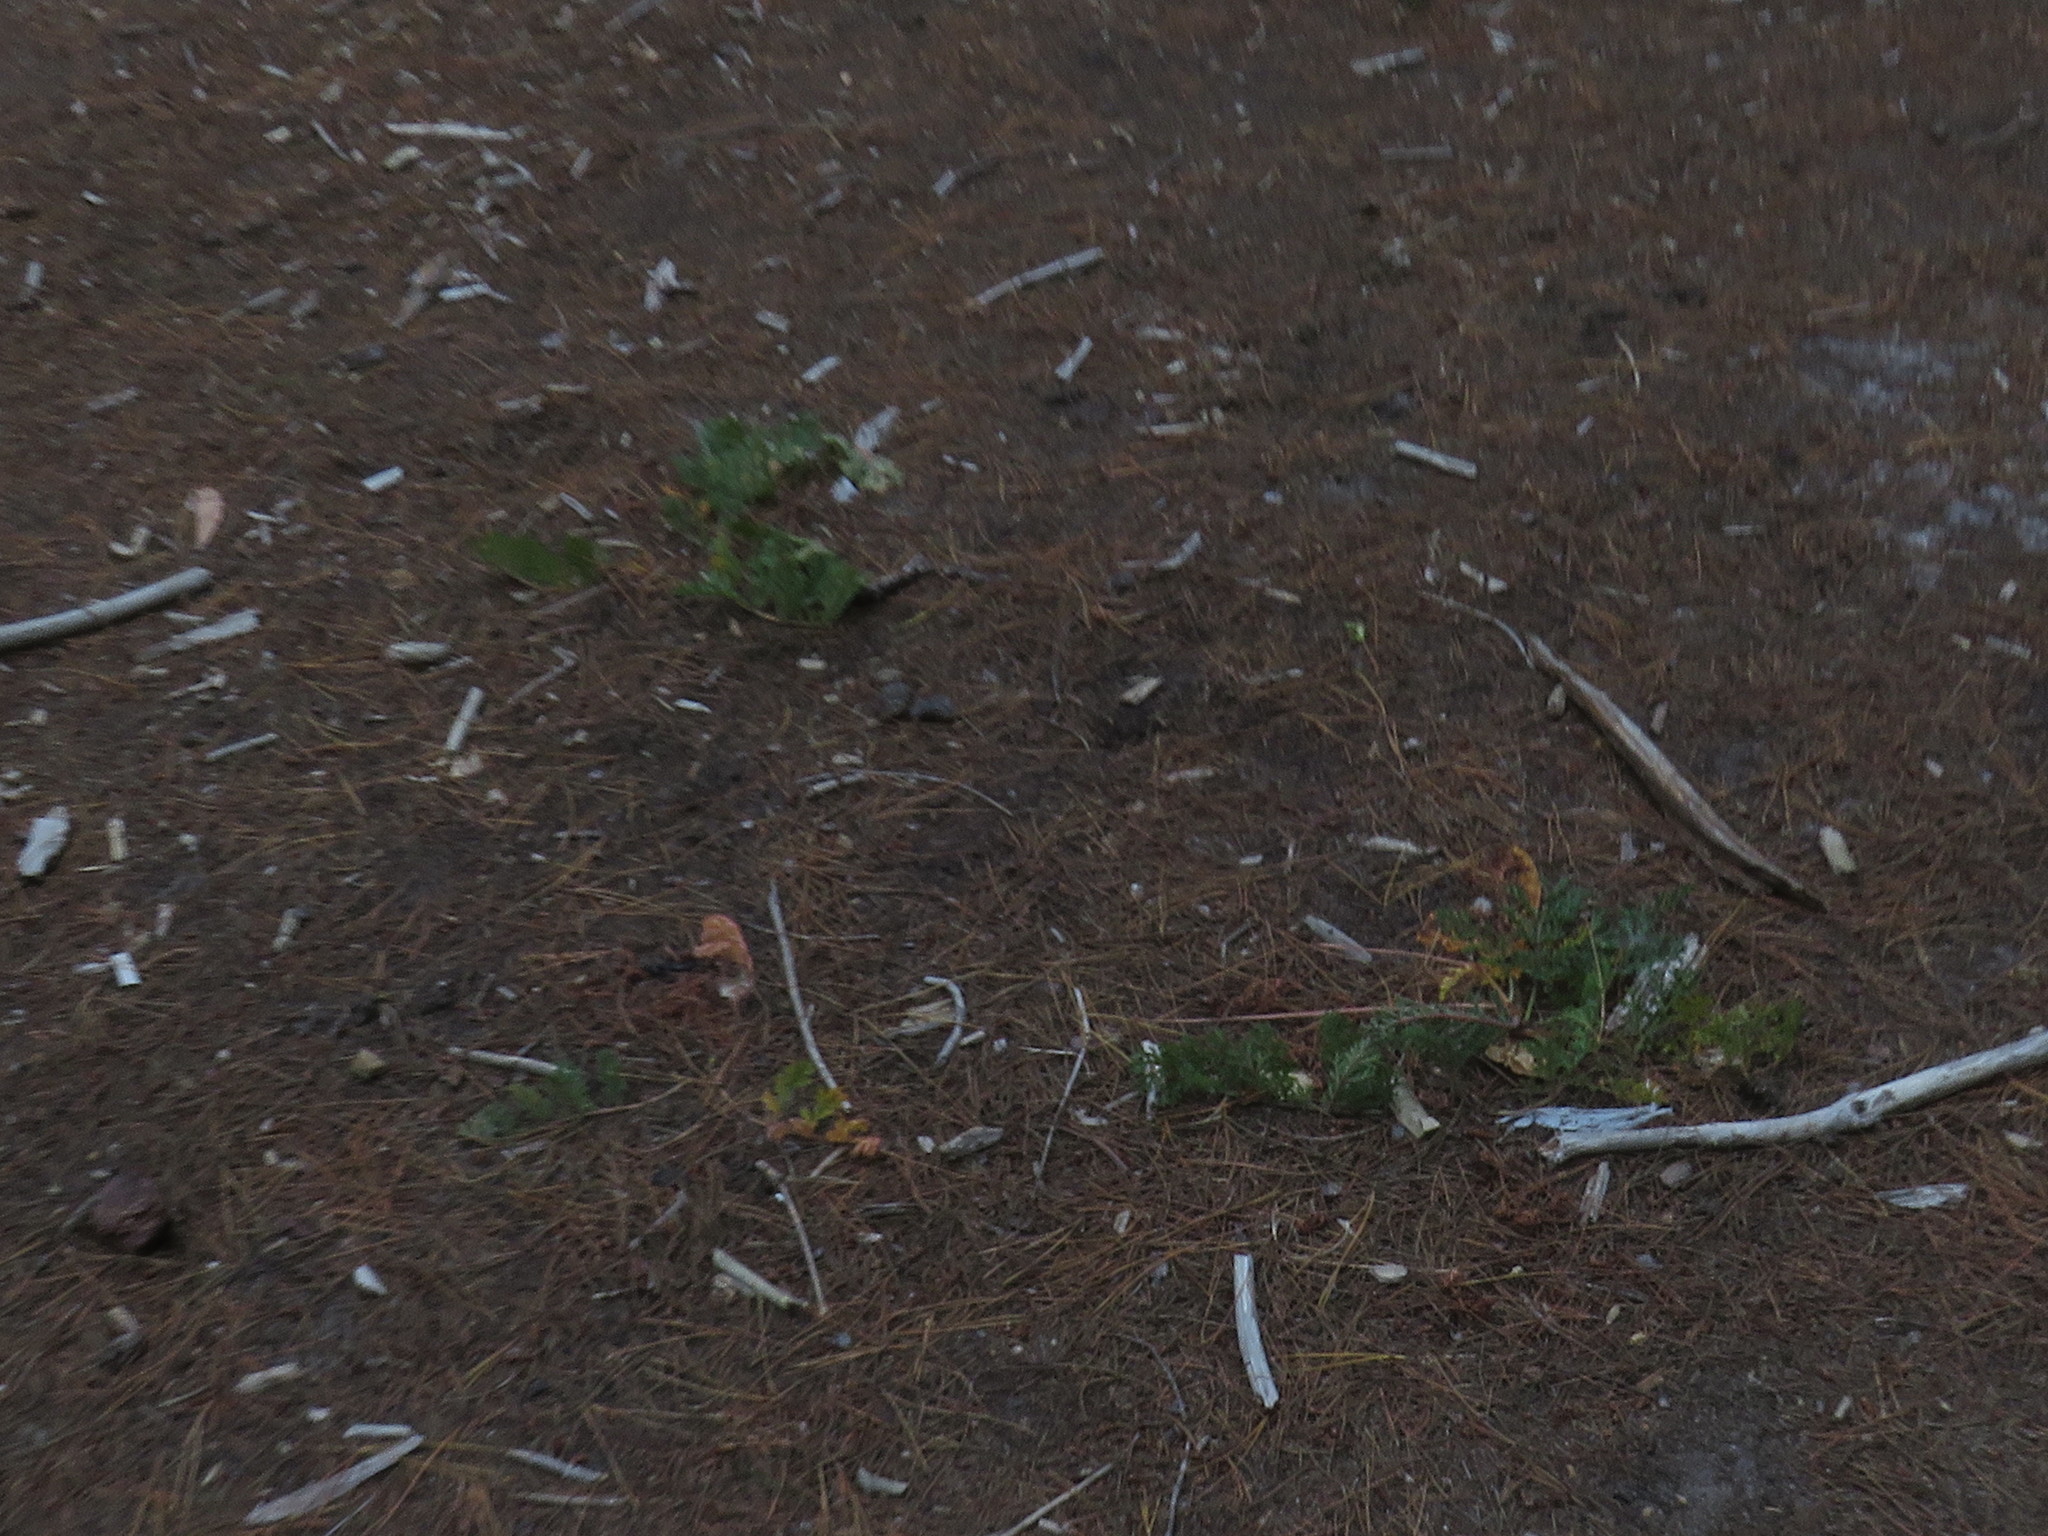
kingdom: Plantae
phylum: Tracheophyta
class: Magnoliopsida
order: Geraniales
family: Geraniaceae
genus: Pelargonium
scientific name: Pelargonium triste
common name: Night-scent pelargonium
